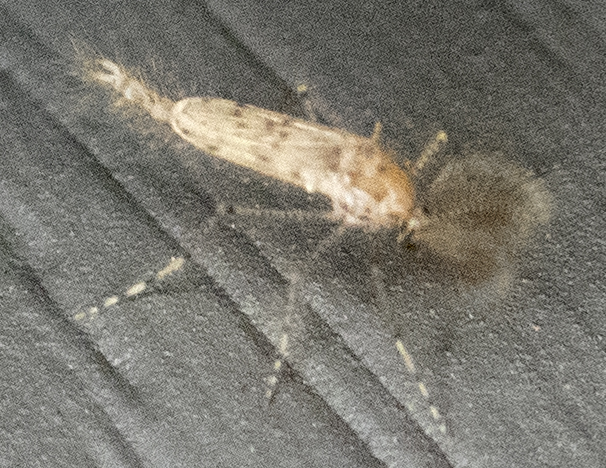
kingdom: Animalia
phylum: Arthropoda
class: Insecta
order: Diptera
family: Chaoboridae
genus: Chaoborus
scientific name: Chaoborus punctipennis
